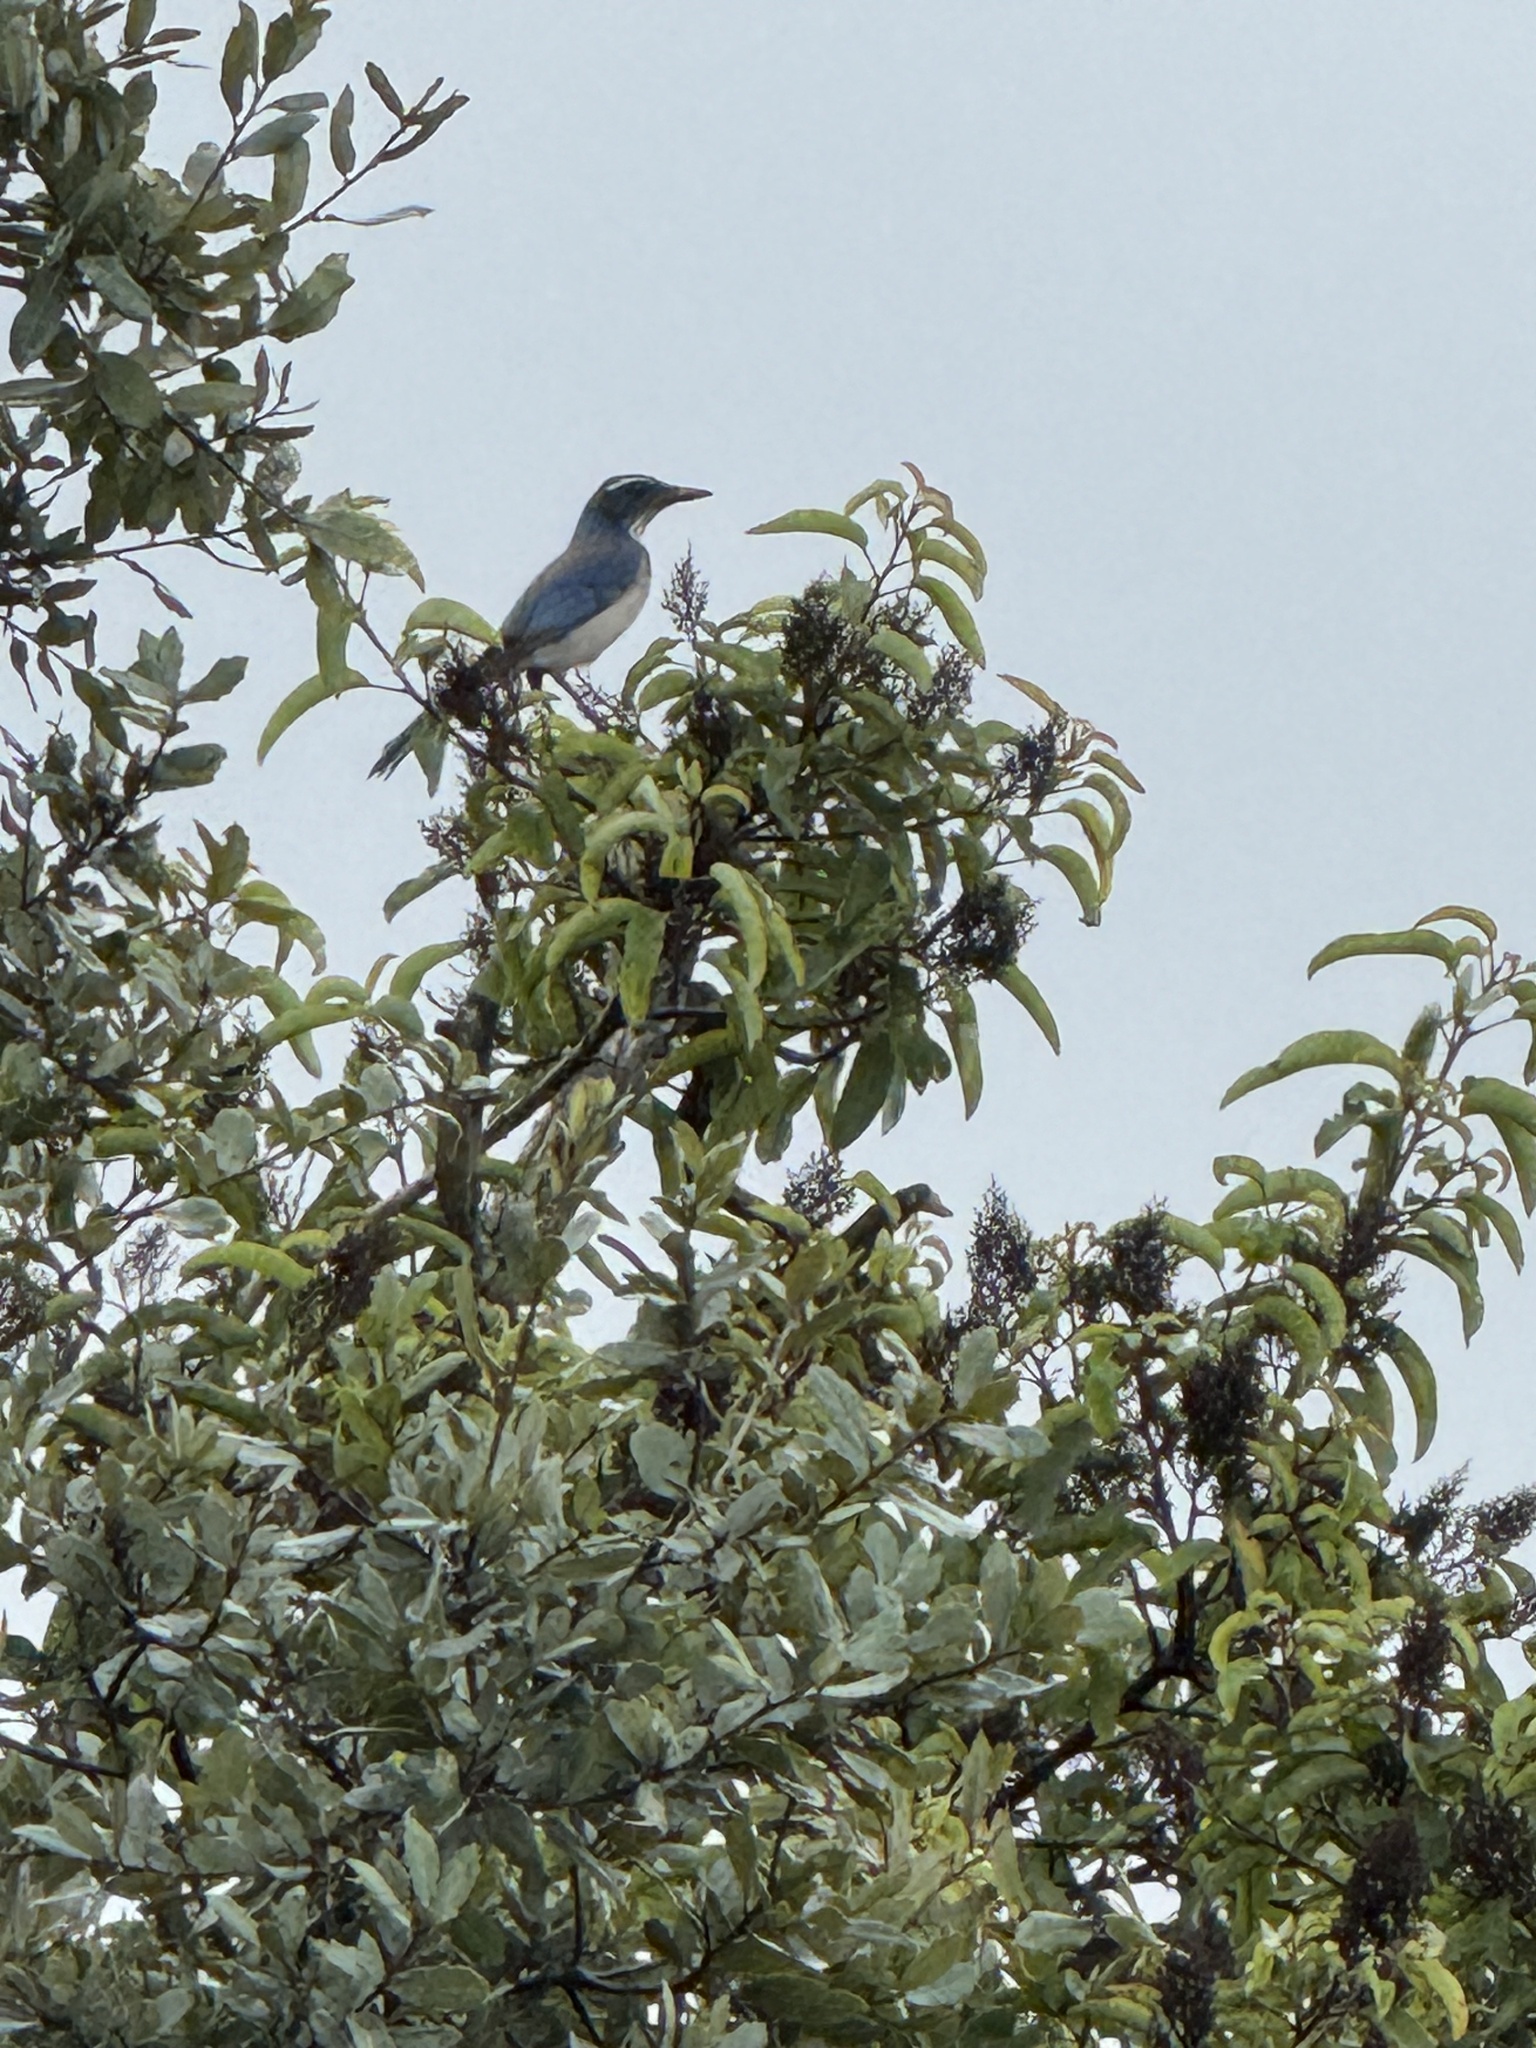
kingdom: Animalia
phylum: Chordata
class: Aves
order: Passeriformes
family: Corvidae
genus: Aphelocoma
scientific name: Aphelocoma californica
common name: California scrub-jay
